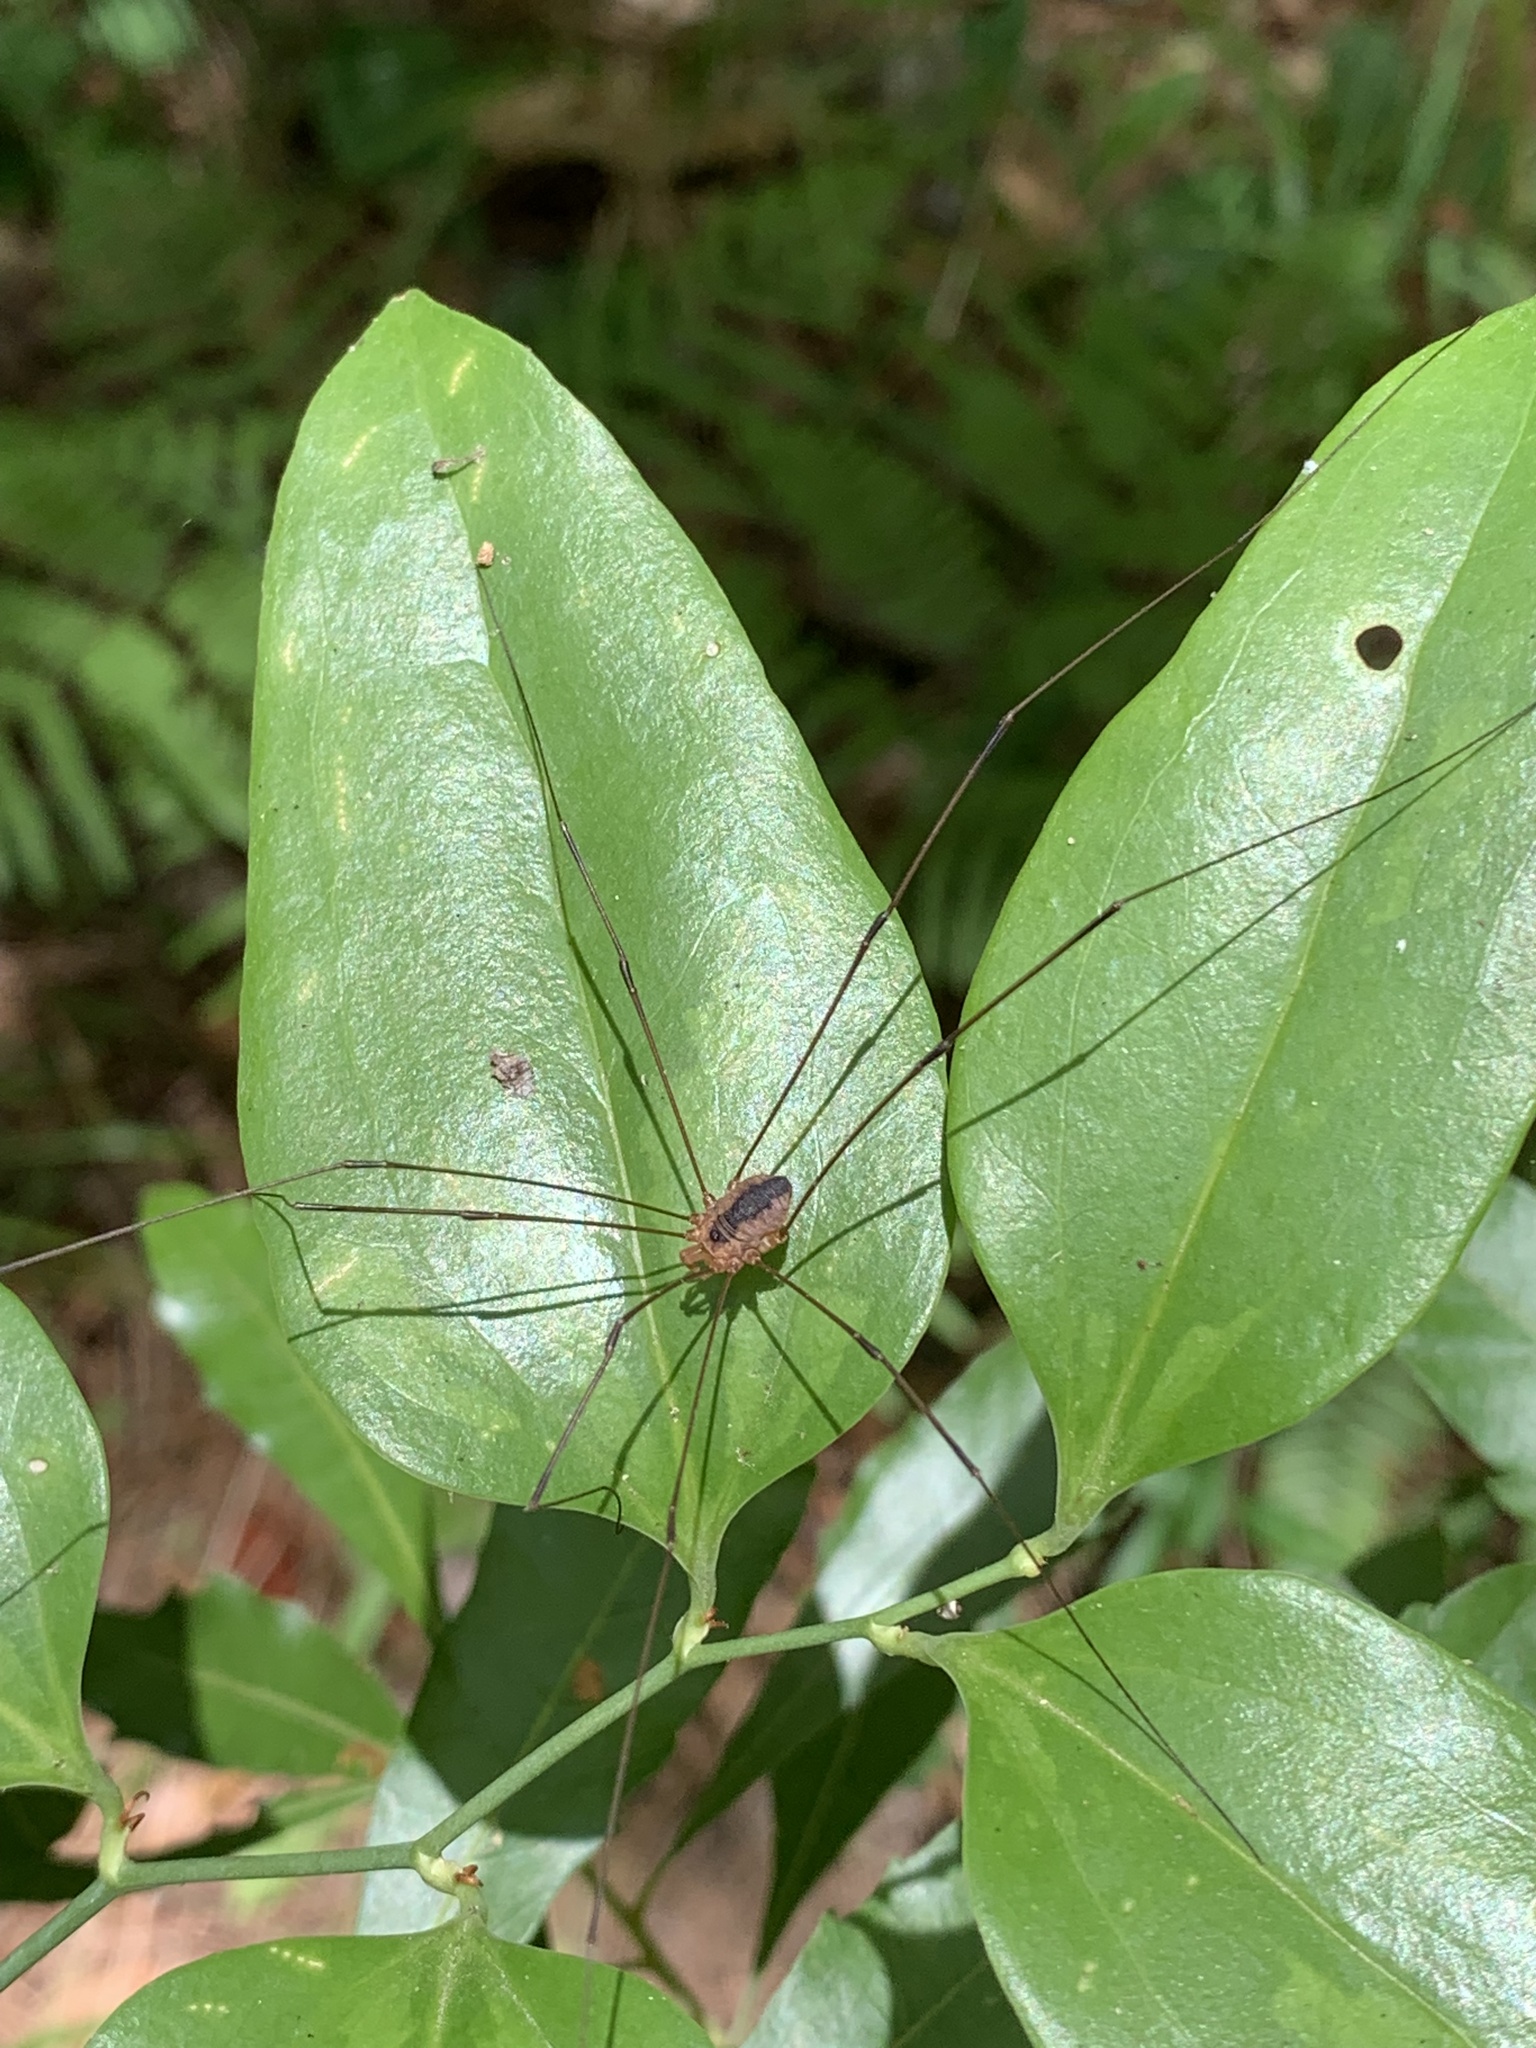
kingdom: Animalia
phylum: Arthropoda
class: Arachnida
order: Opiliones
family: Sclerosomatidae
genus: Leiobunum
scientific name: Leiobunum vittatum
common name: Eastern harvestman
